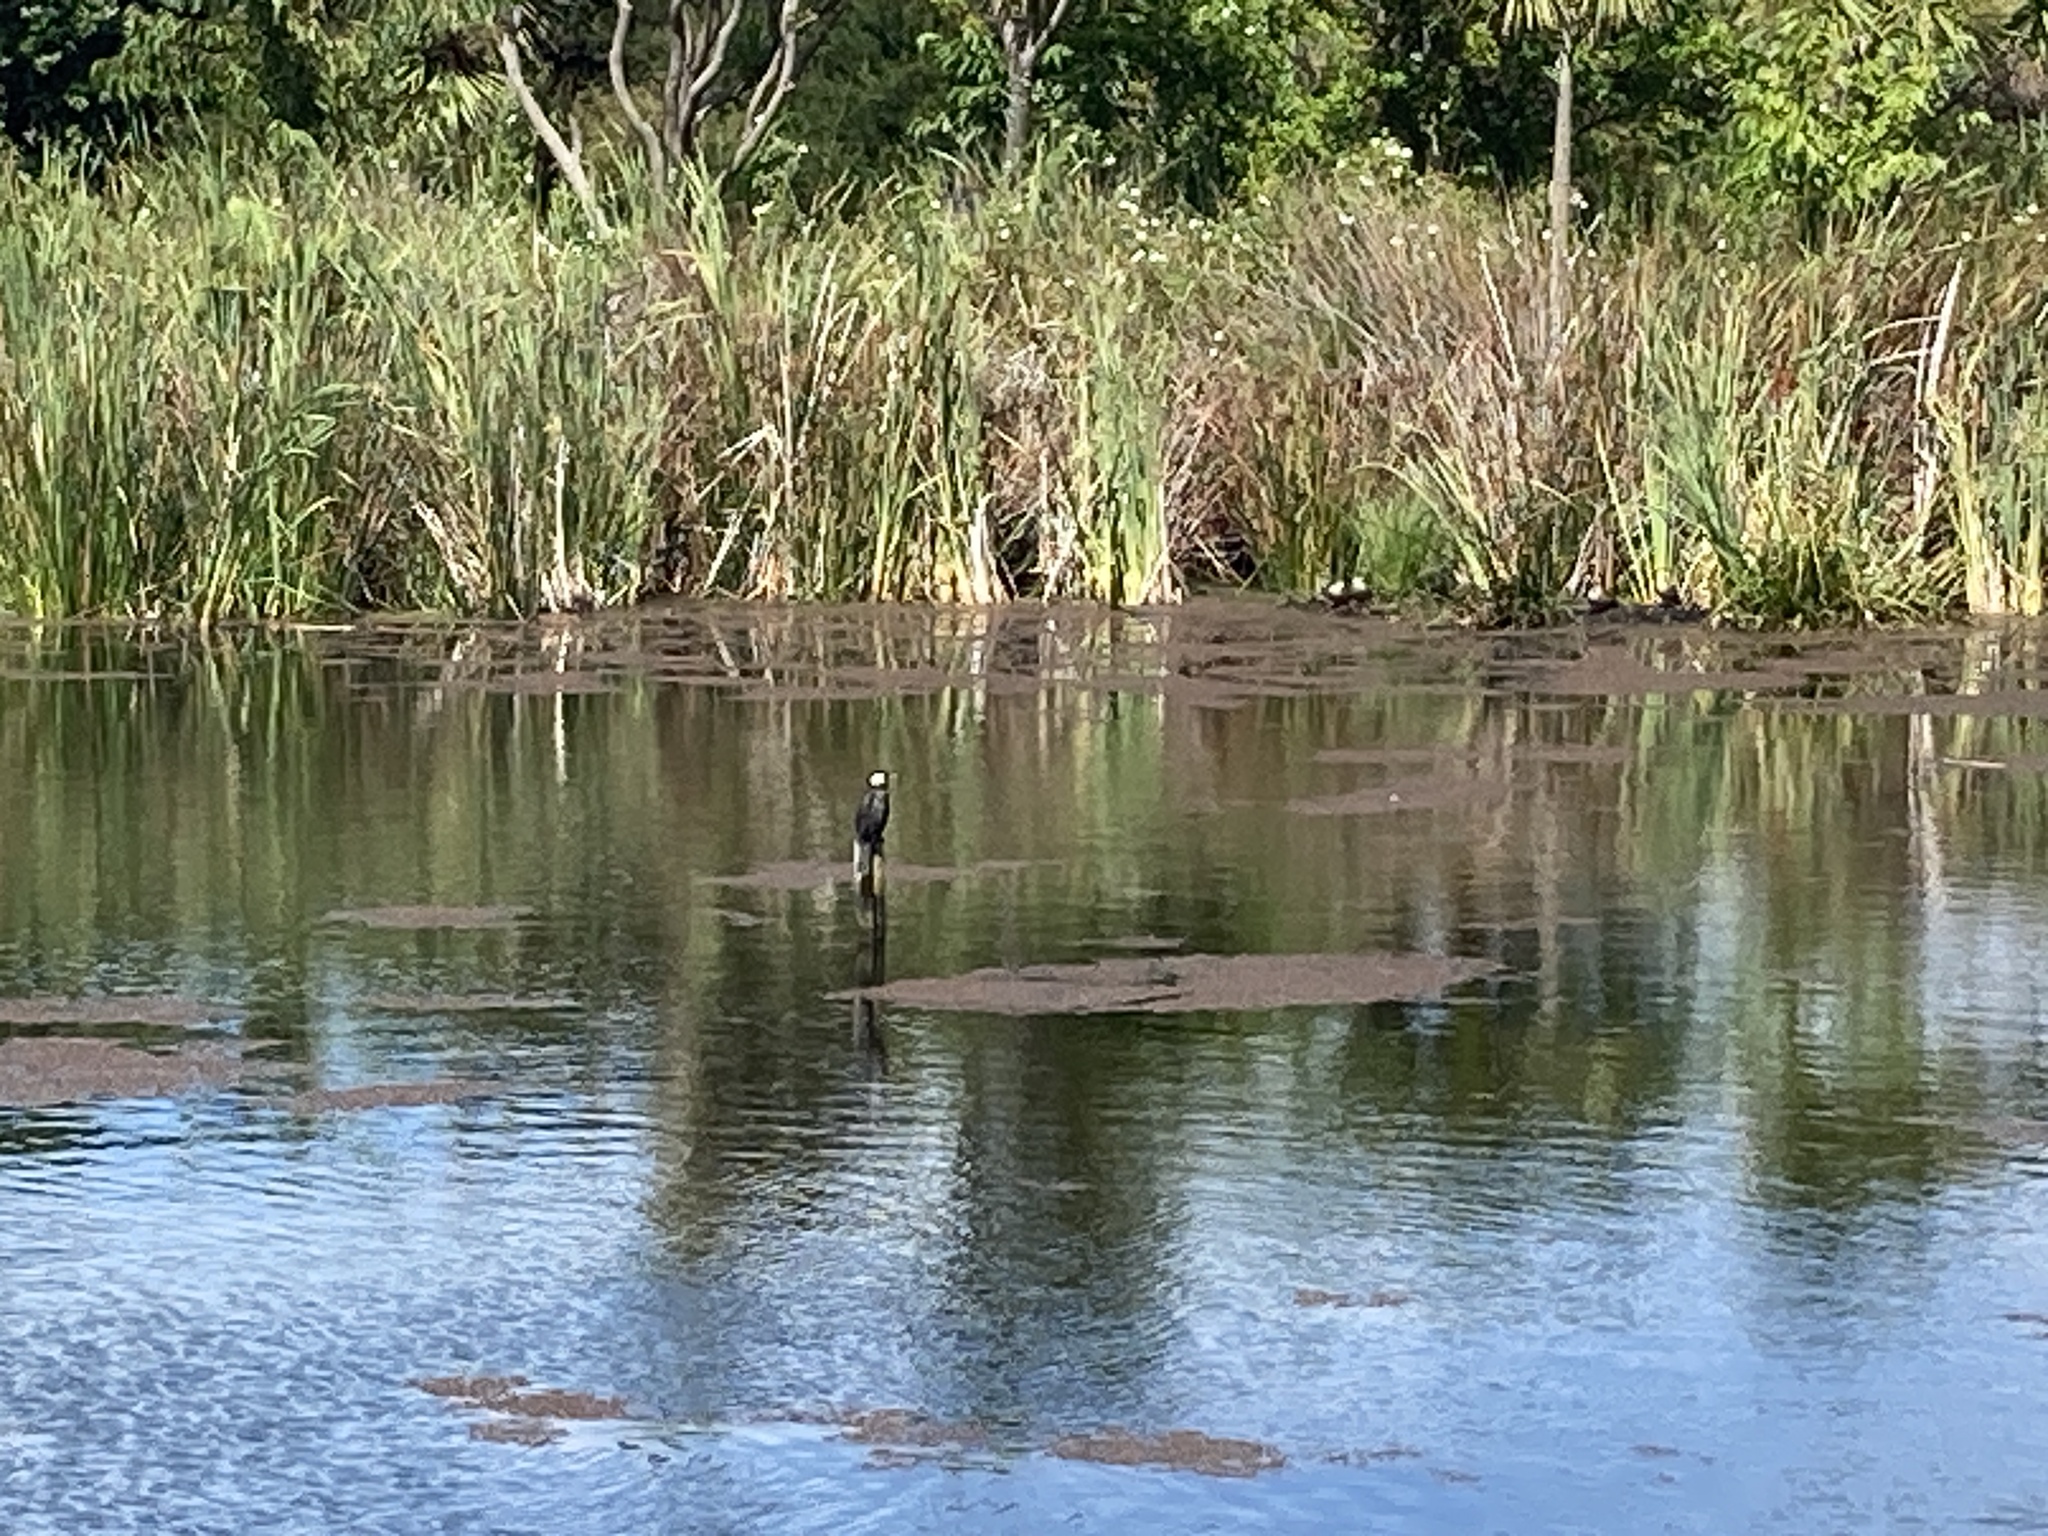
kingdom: Animalia
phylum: Chordata
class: Aves
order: Suliformes
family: Phalacrocoracidae
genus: Microcarbo
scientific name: Microcarbo melanoleucos
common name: Little pied cormorant
